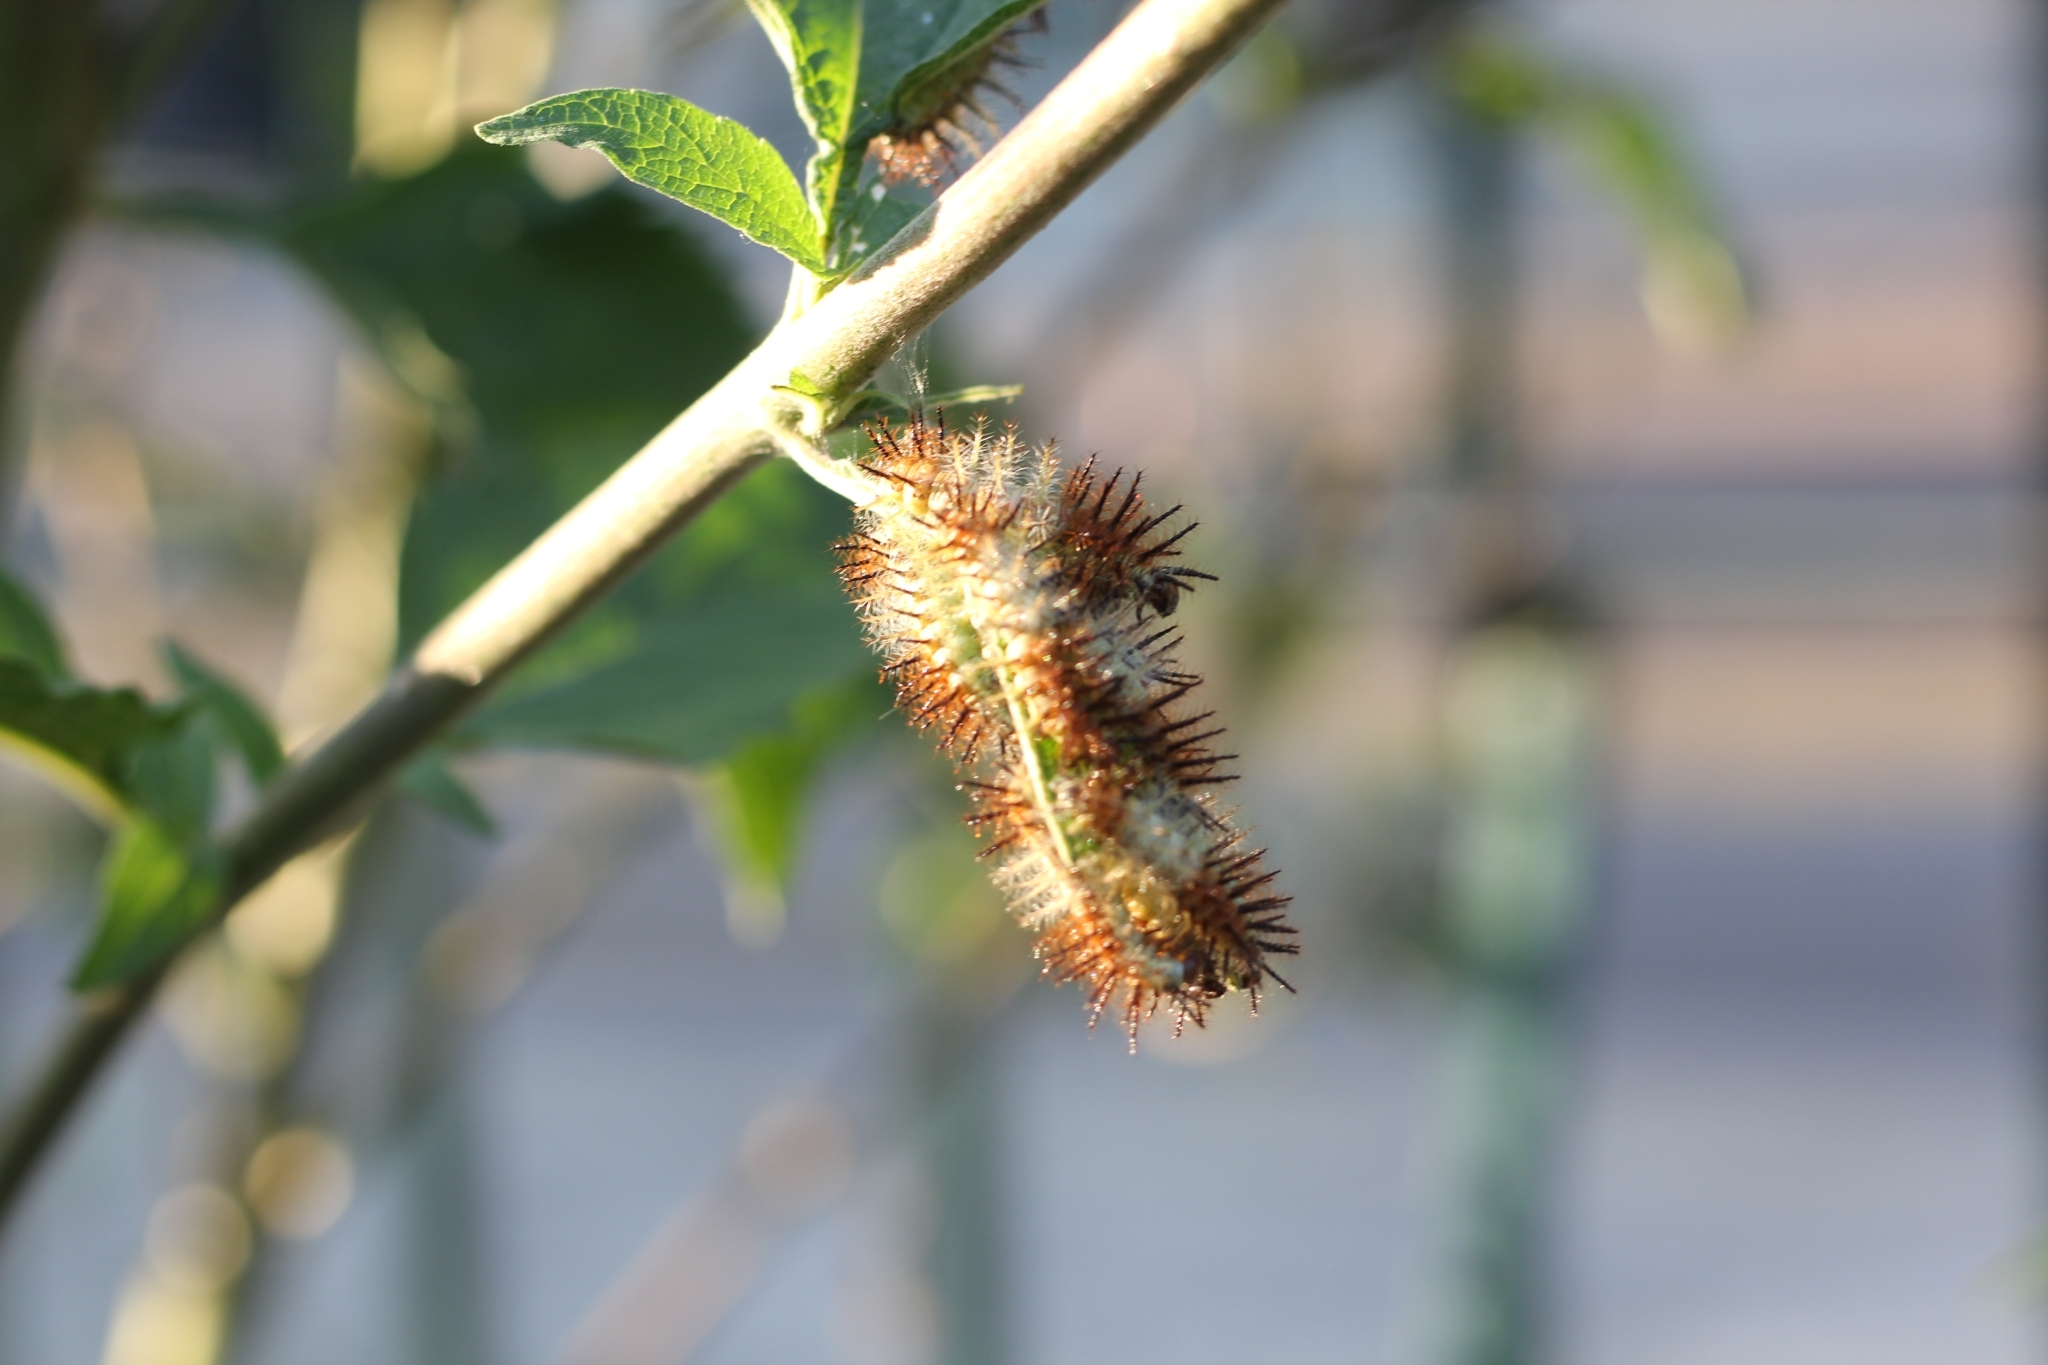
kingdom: Animalia
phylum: Arthropoda
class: Insecta
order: Lepidoptera
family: Nymphalidae
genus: Actinote
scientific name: Actinote
